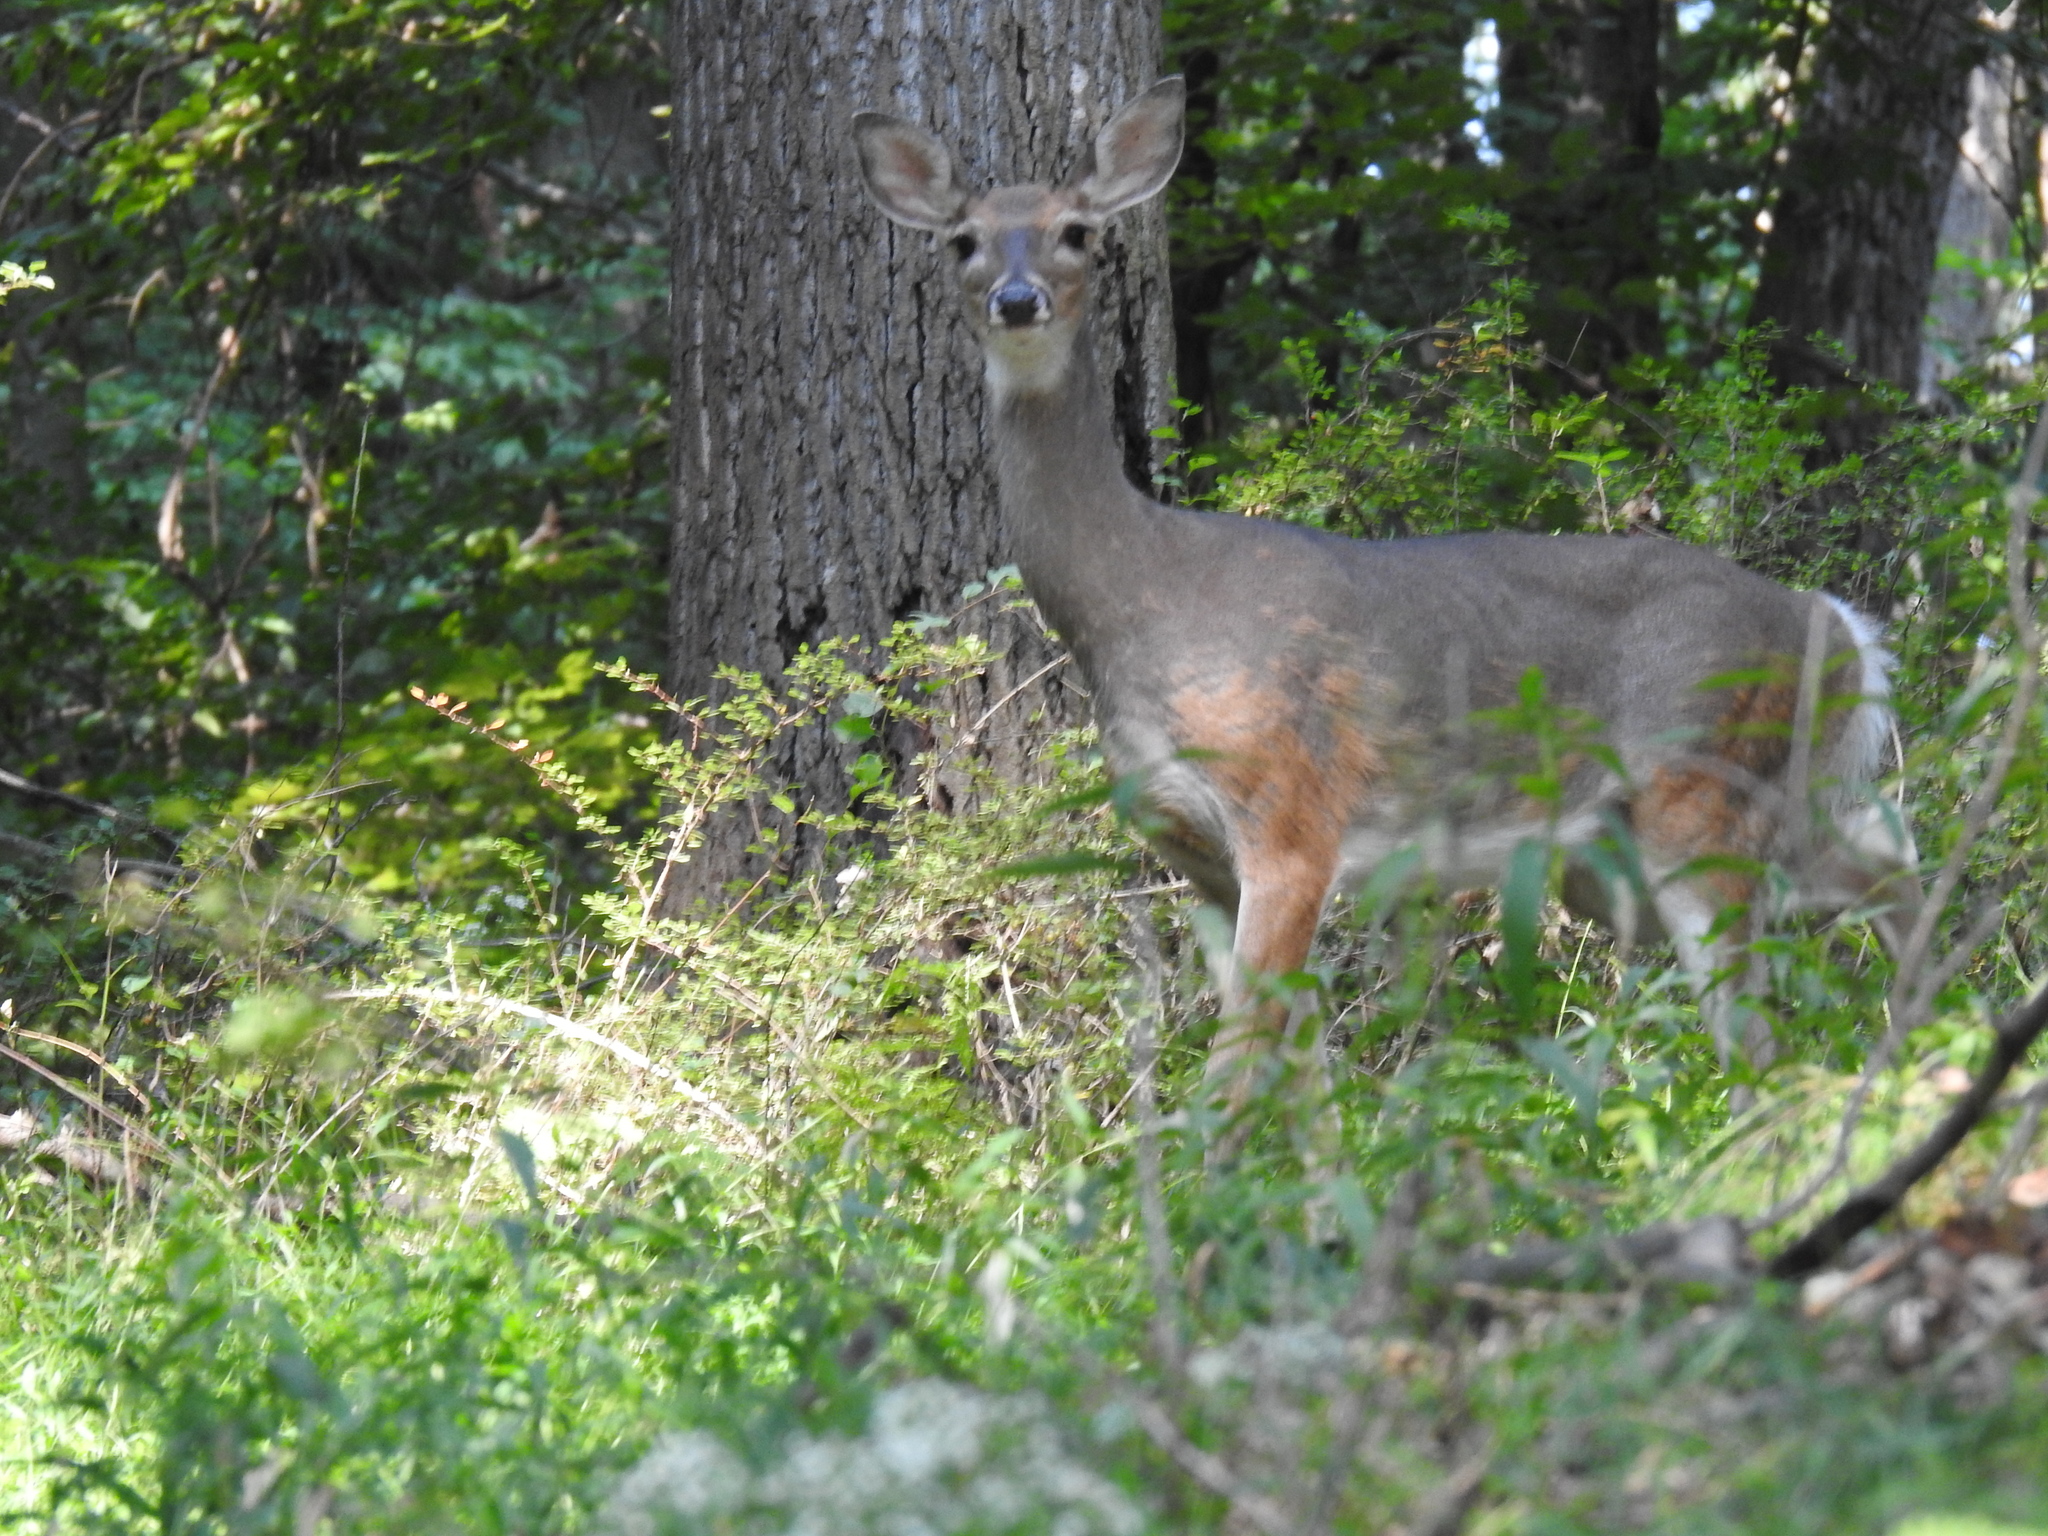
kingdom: Animalia
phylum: Chordata
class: Mammalia
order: Artiodactyla
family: Cervidae
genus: Odocoileus
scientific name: Odocoileus virginianus
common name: White-tailed deer
